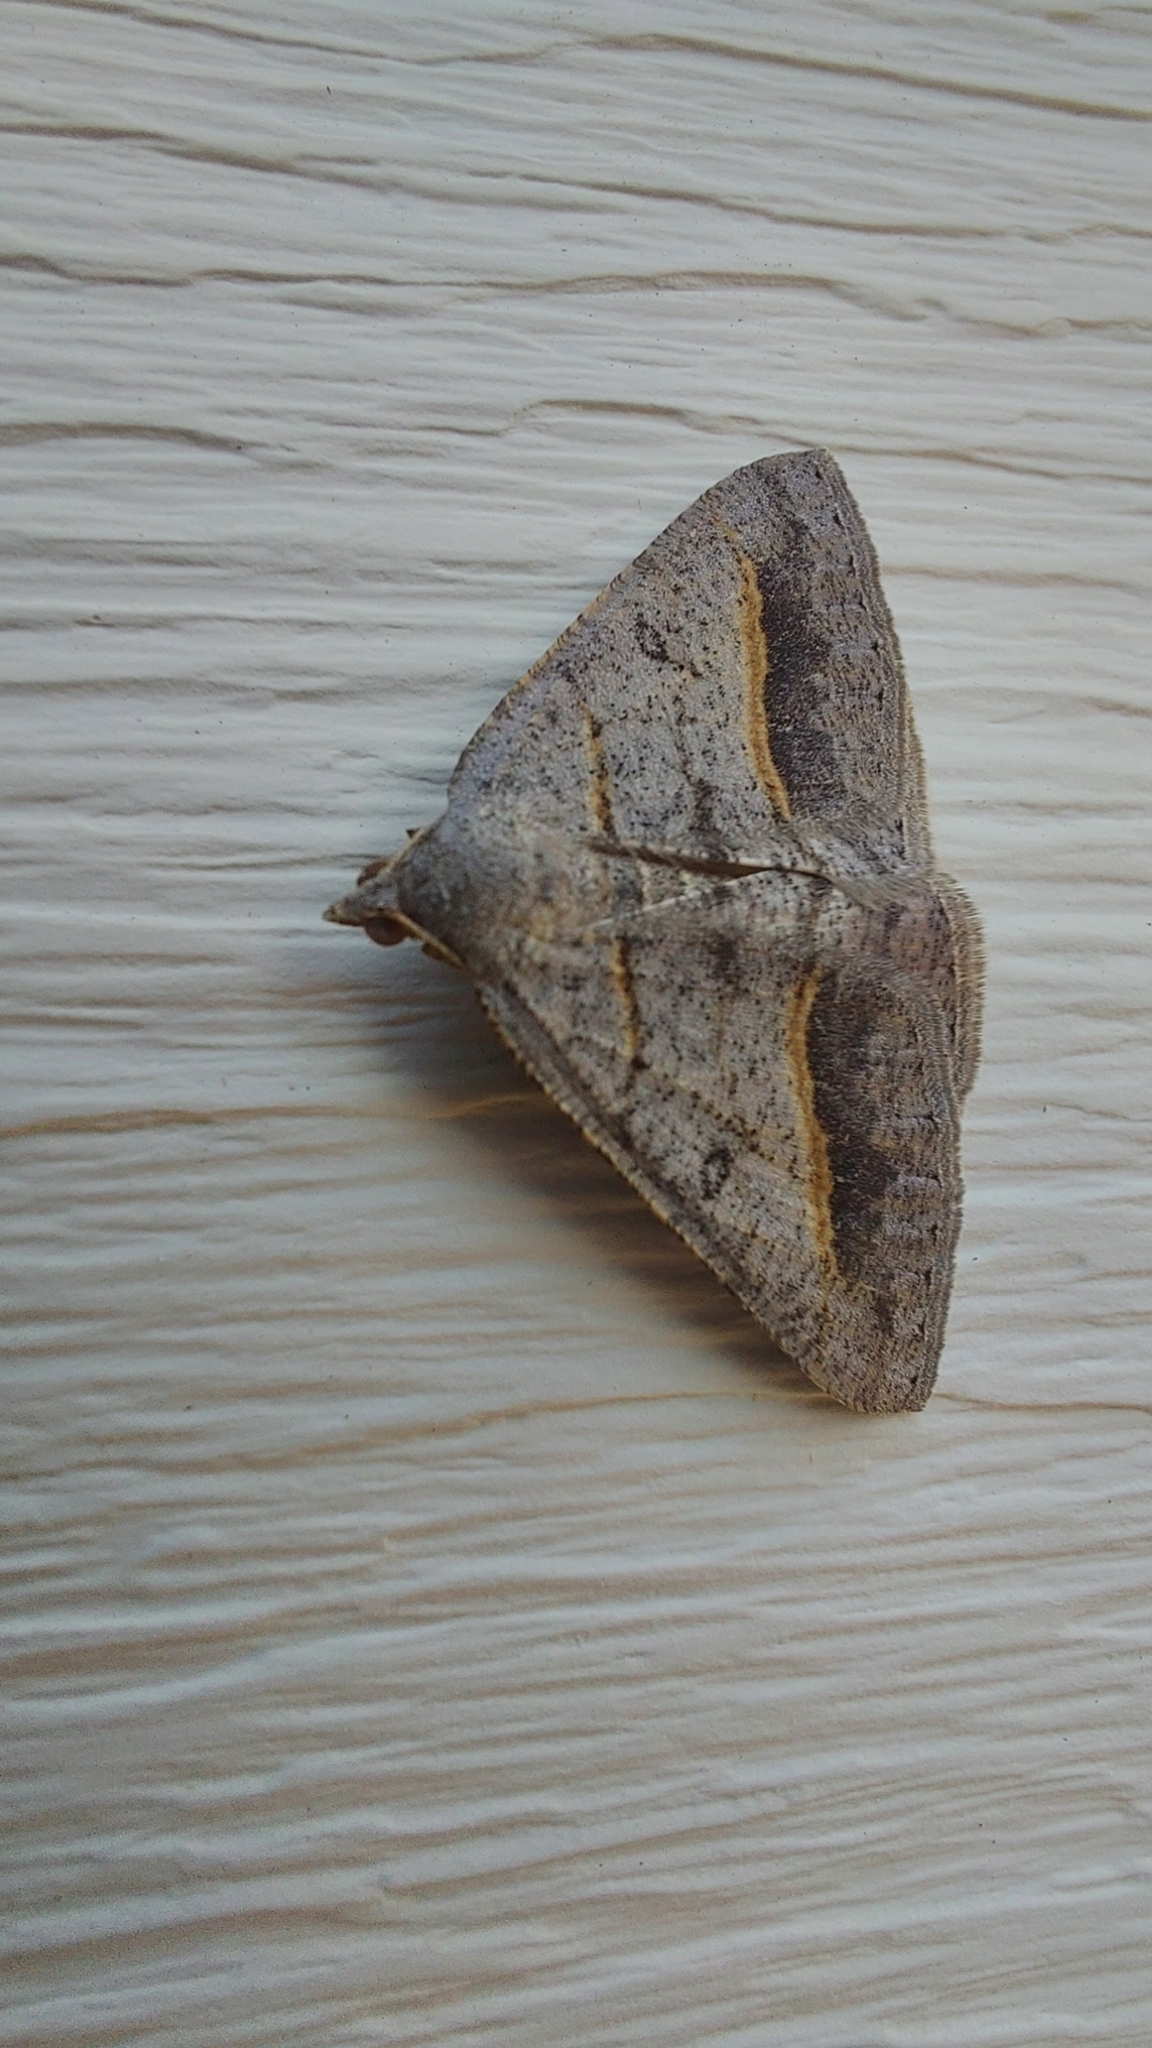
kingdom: Animalia
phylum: Arthropoda
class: Insecta
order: Lepidoptera
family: Geometridae
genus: Digrammia
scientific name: Digrammia neptaria
